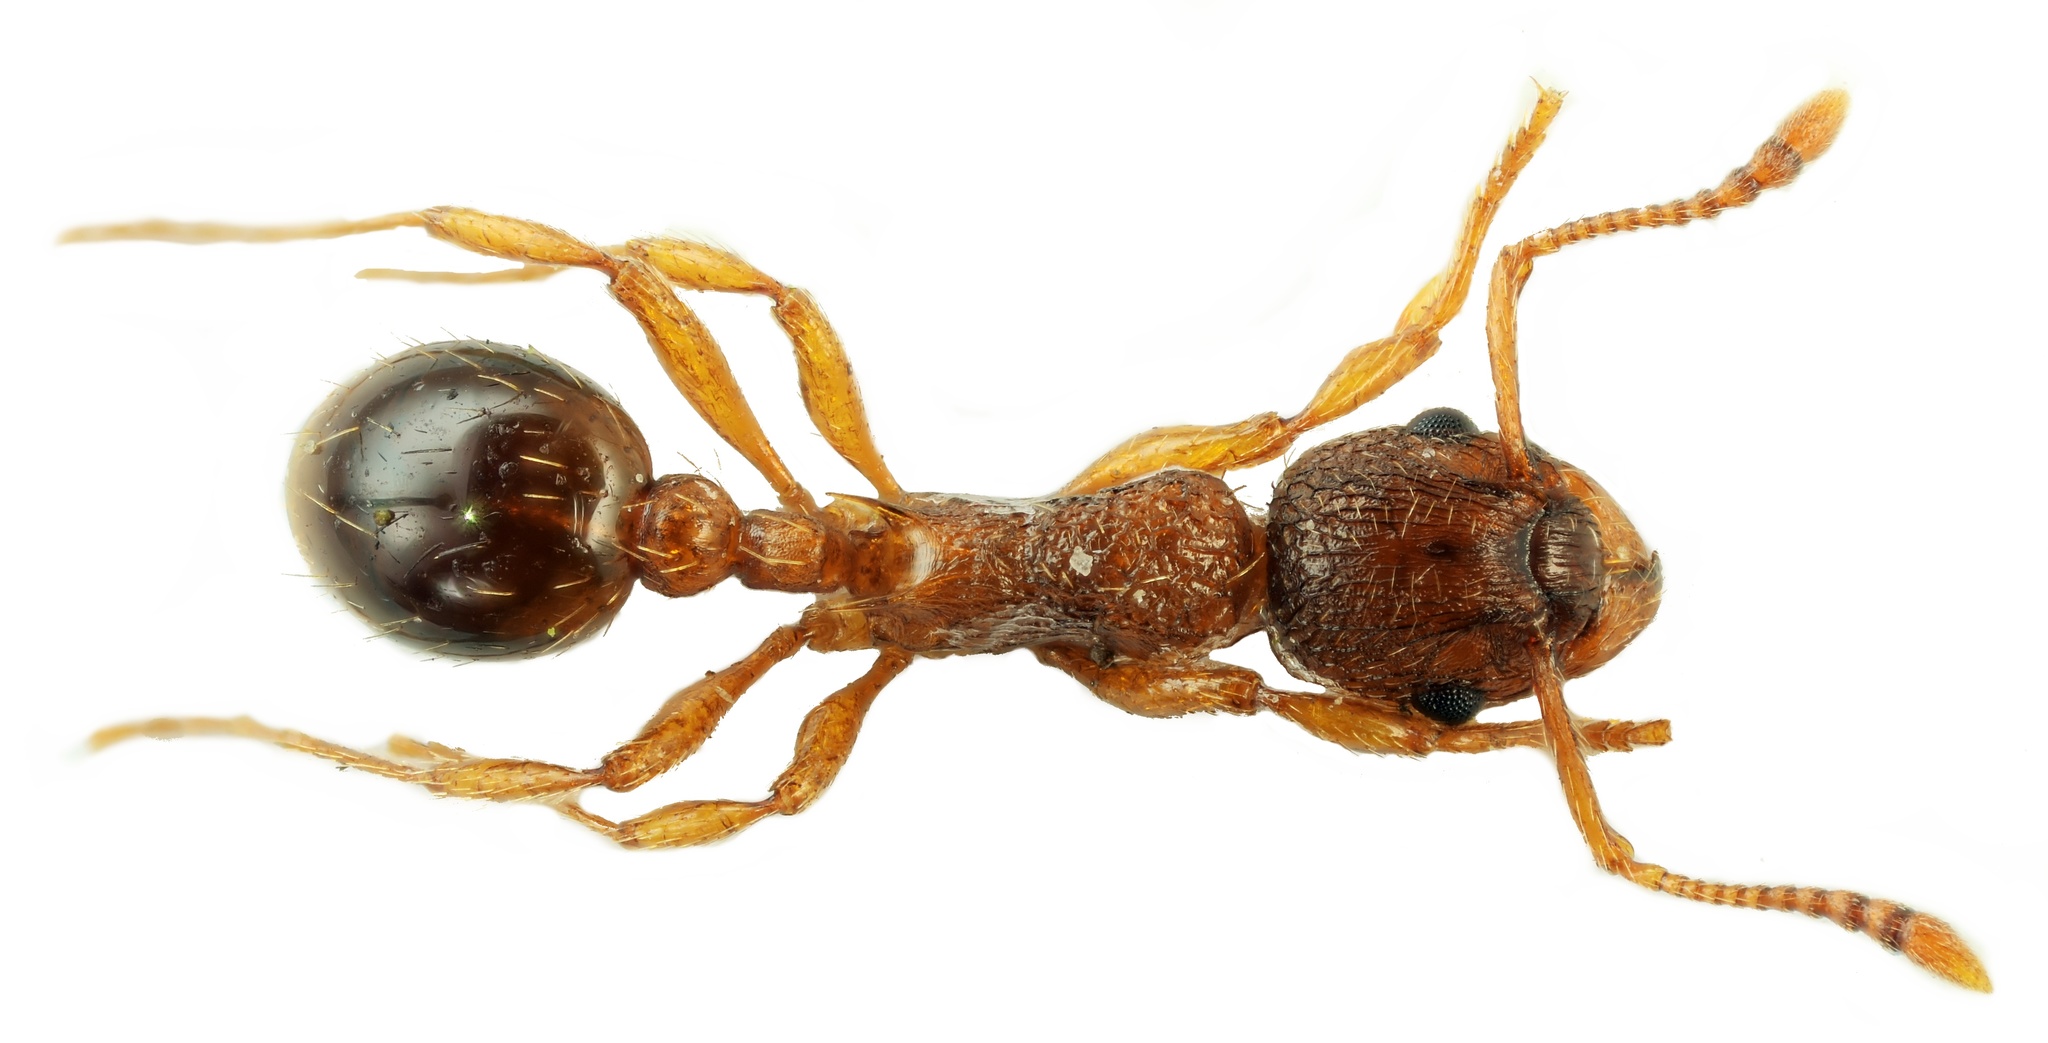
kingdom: Animalia
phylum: Arthropoda
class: Insecta
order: Hymenoptera
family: Formicidae
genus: Myrmica
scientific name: Myrmica rugulosa
